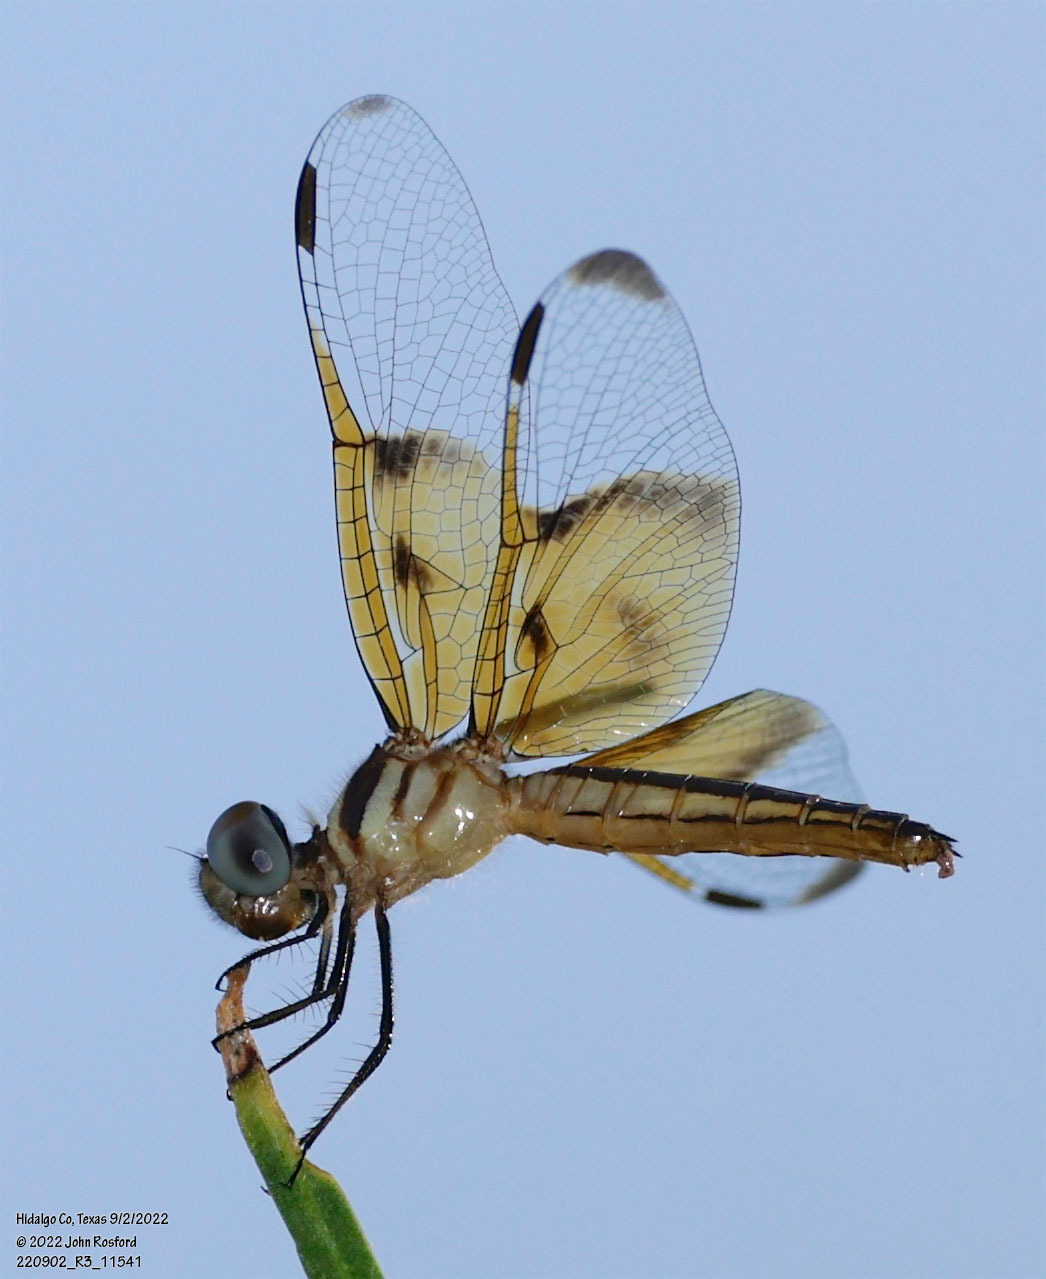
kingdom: Animalia
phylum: Arthropoda
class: Insecta
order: Odonata
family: Libellulidae
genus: Perithemis
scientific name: Perithemis domitia
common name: Slough amberwing
